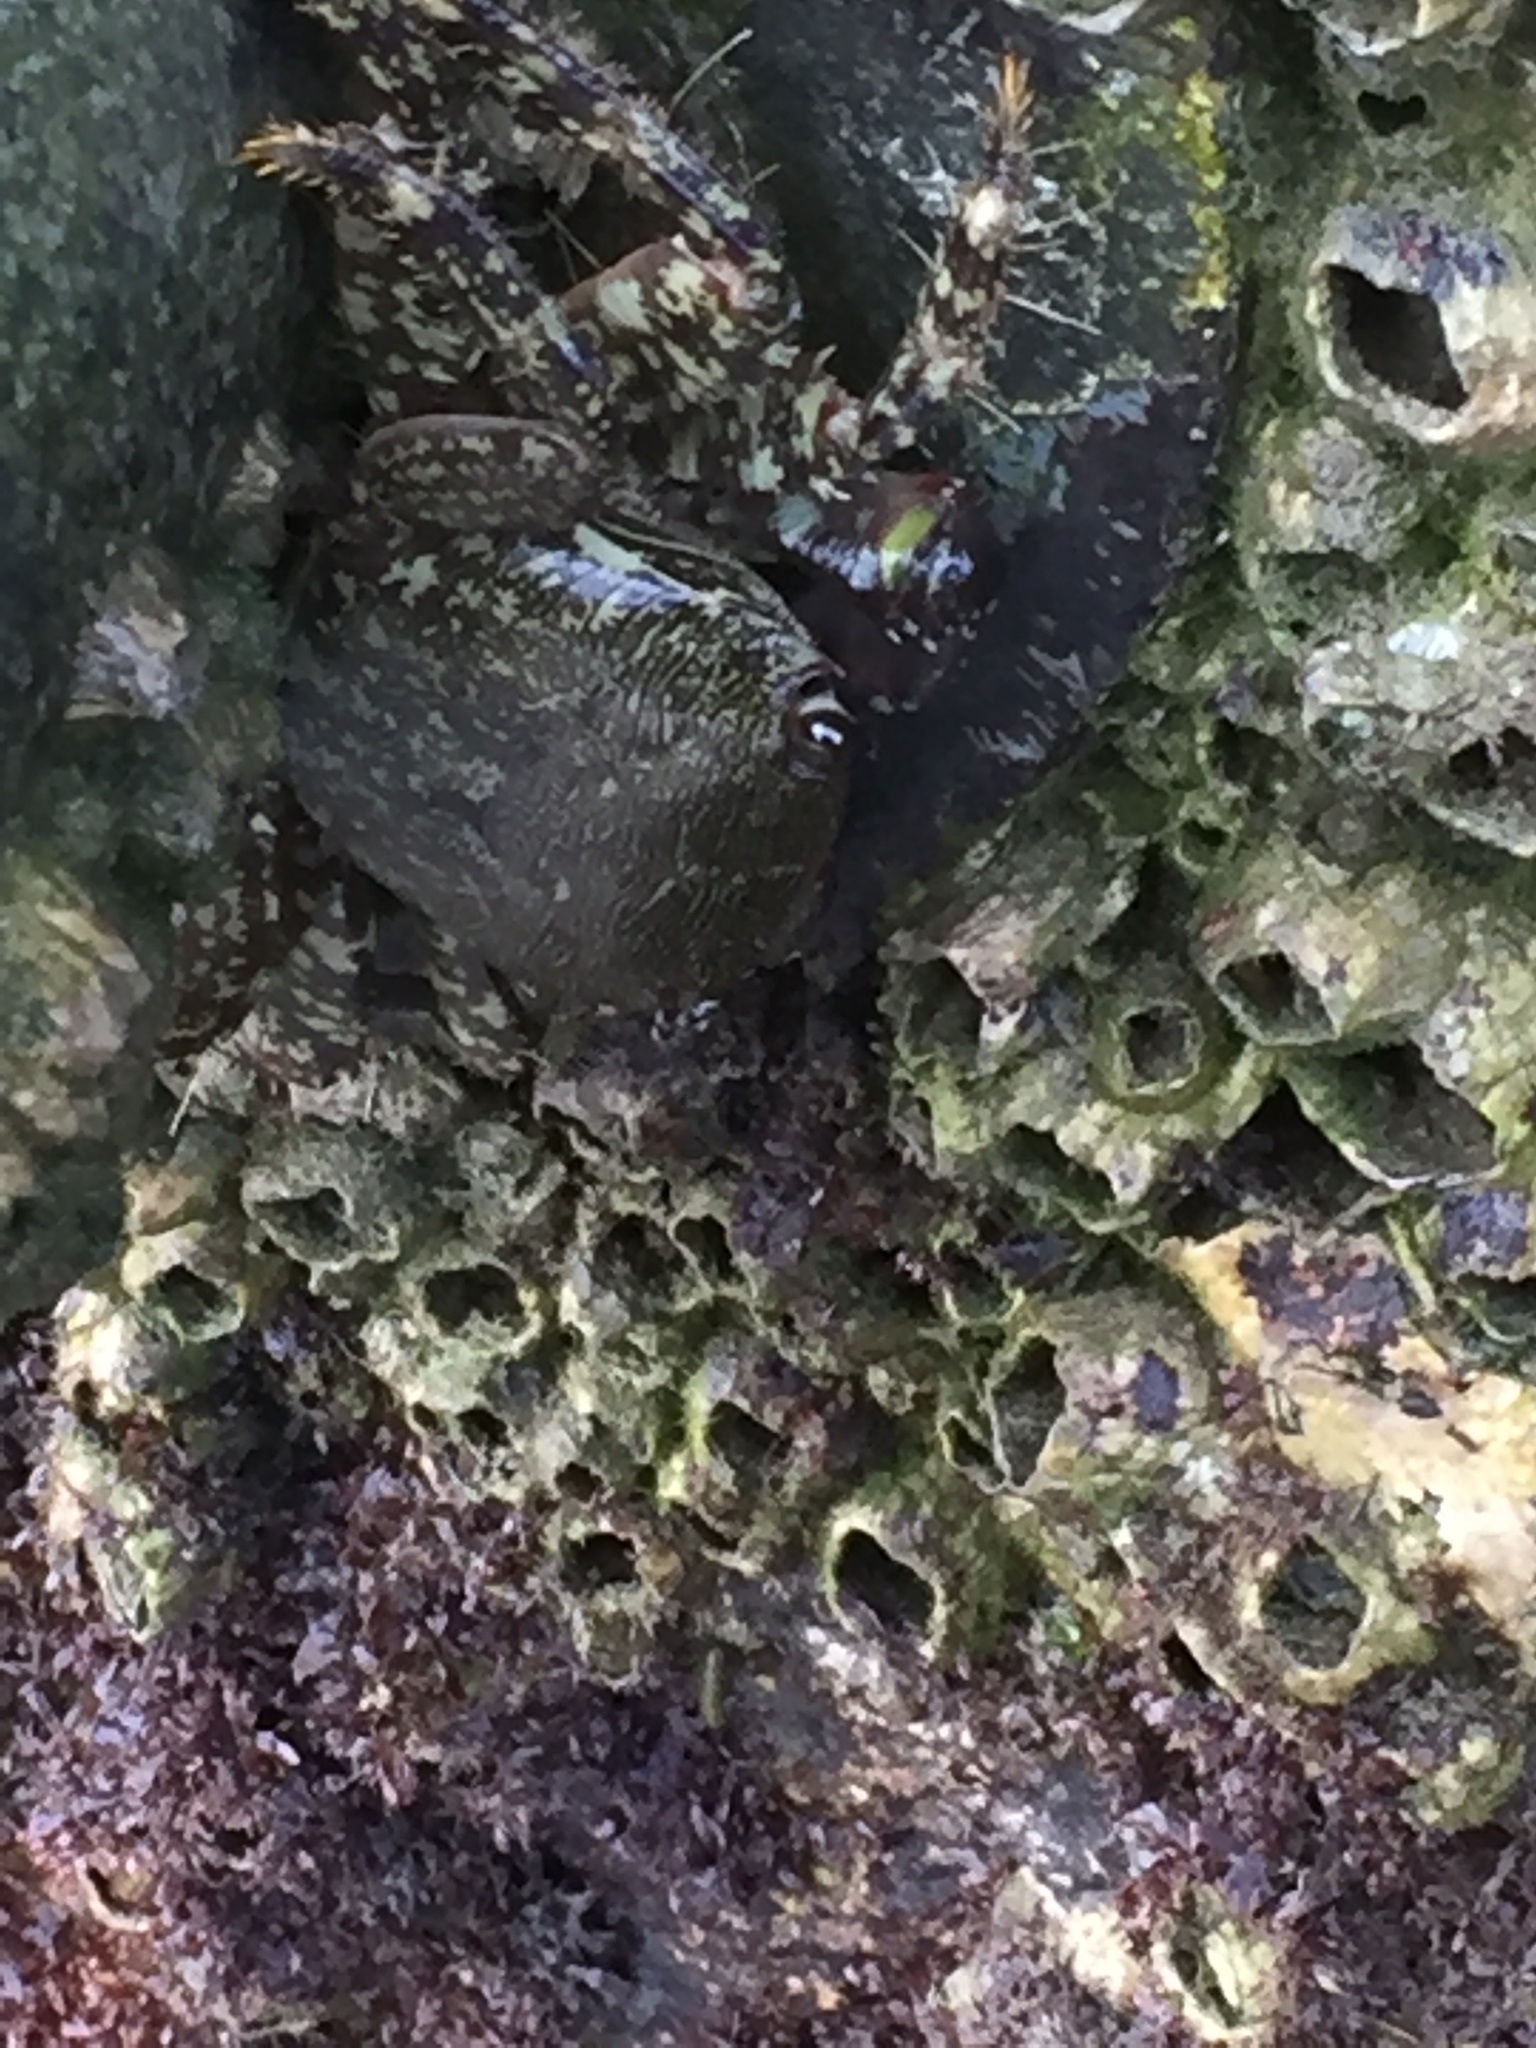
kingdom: Animalia
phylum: Arthropoda
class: Malacostraca
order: Decapoda
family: Grapsidae
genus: Pachygrapsus
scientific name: Pachygrapsus marmoratus
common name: Marbled rock crab
